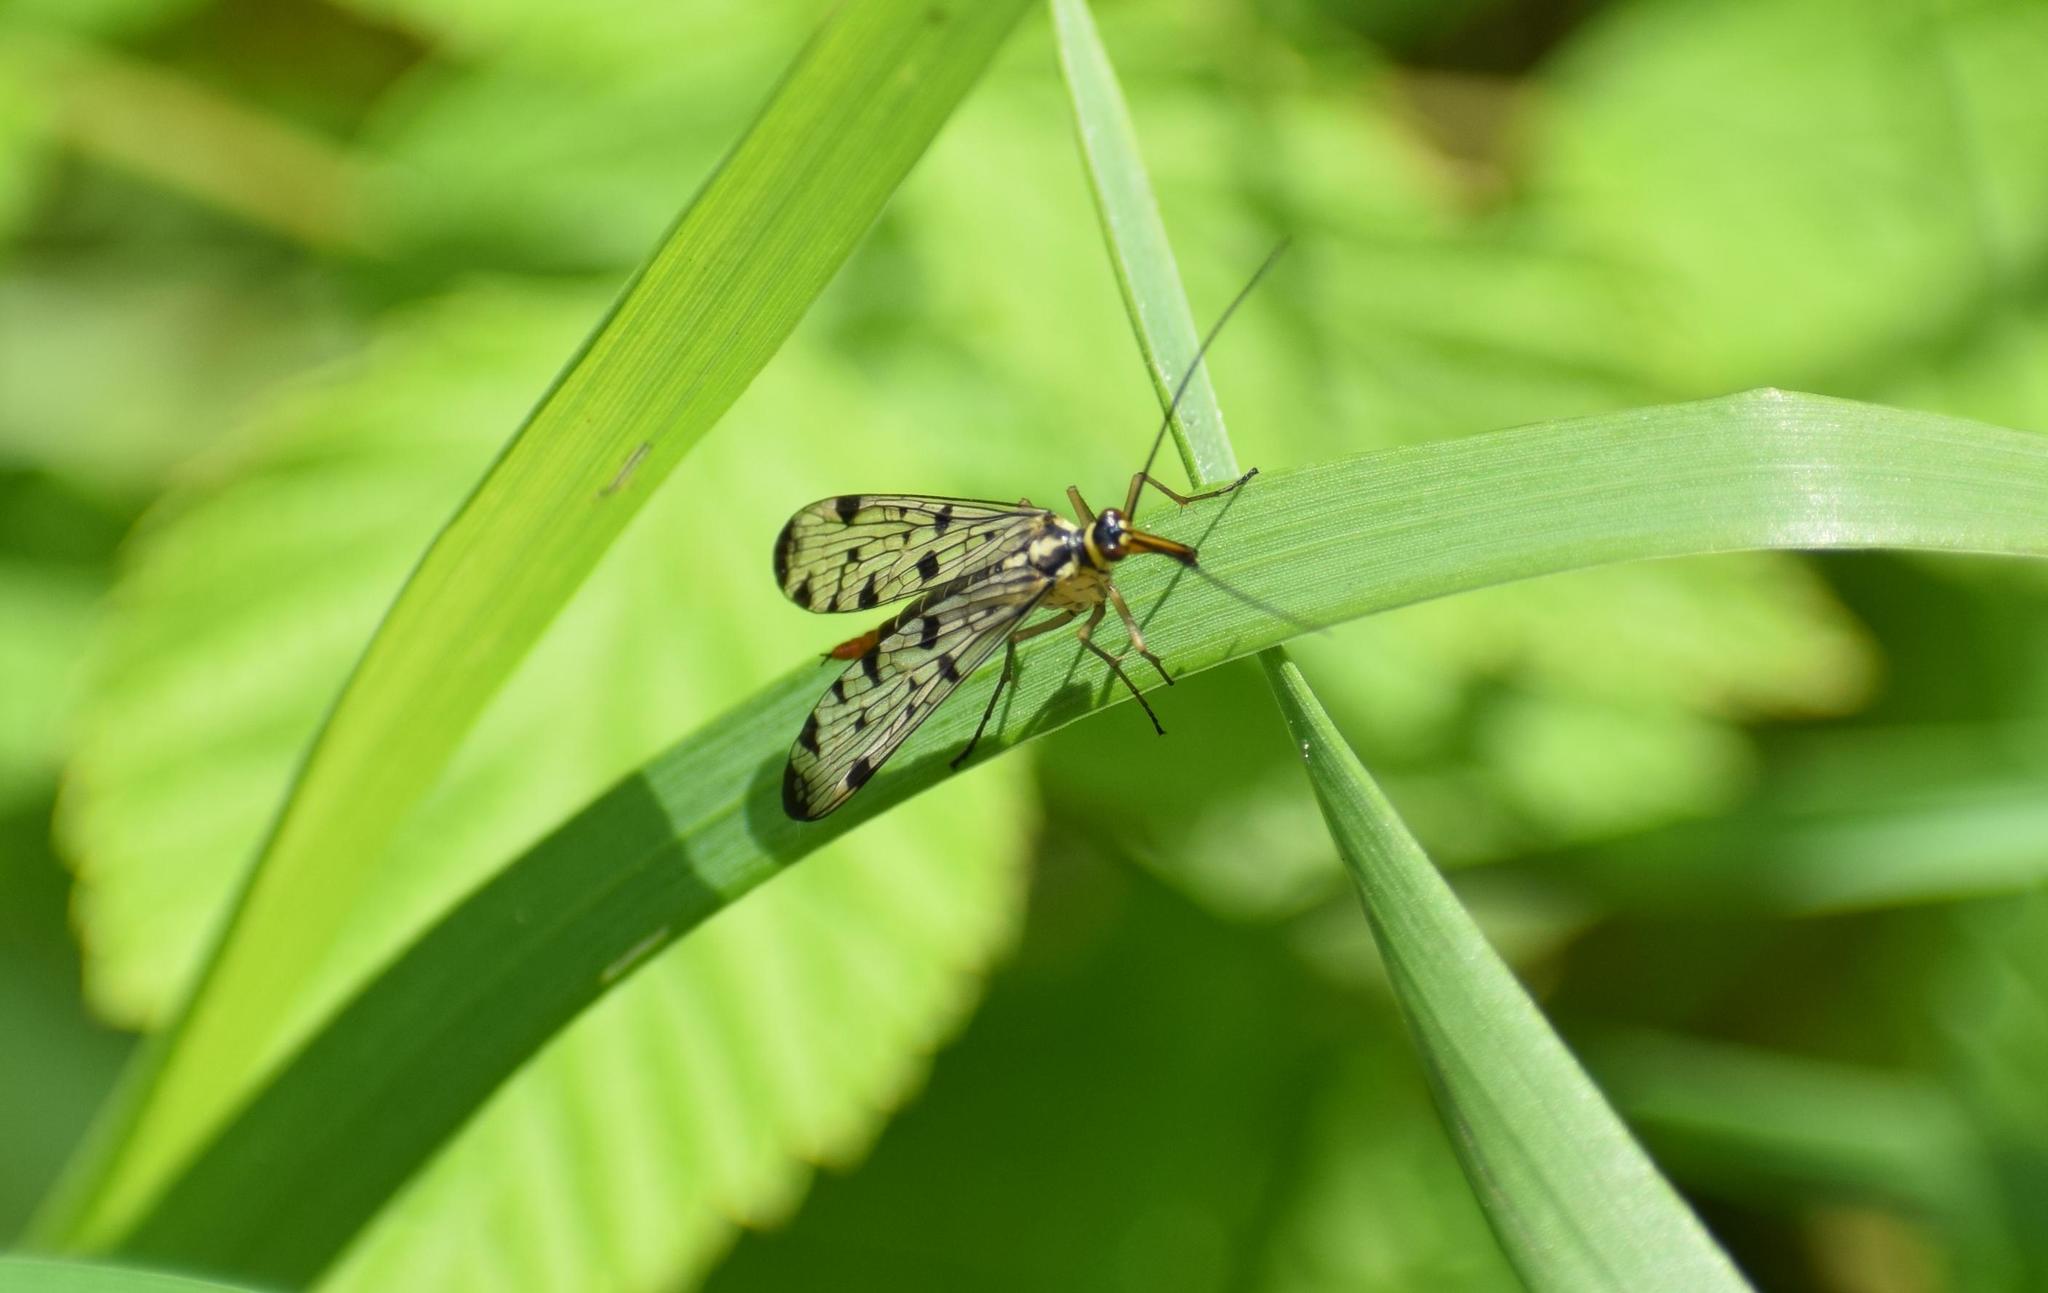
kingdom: Animalia
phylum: Arthropoda
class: Insecta
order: Mecoptera
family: Panorpidae
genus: Panorpa
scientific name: Panorpa germanica
